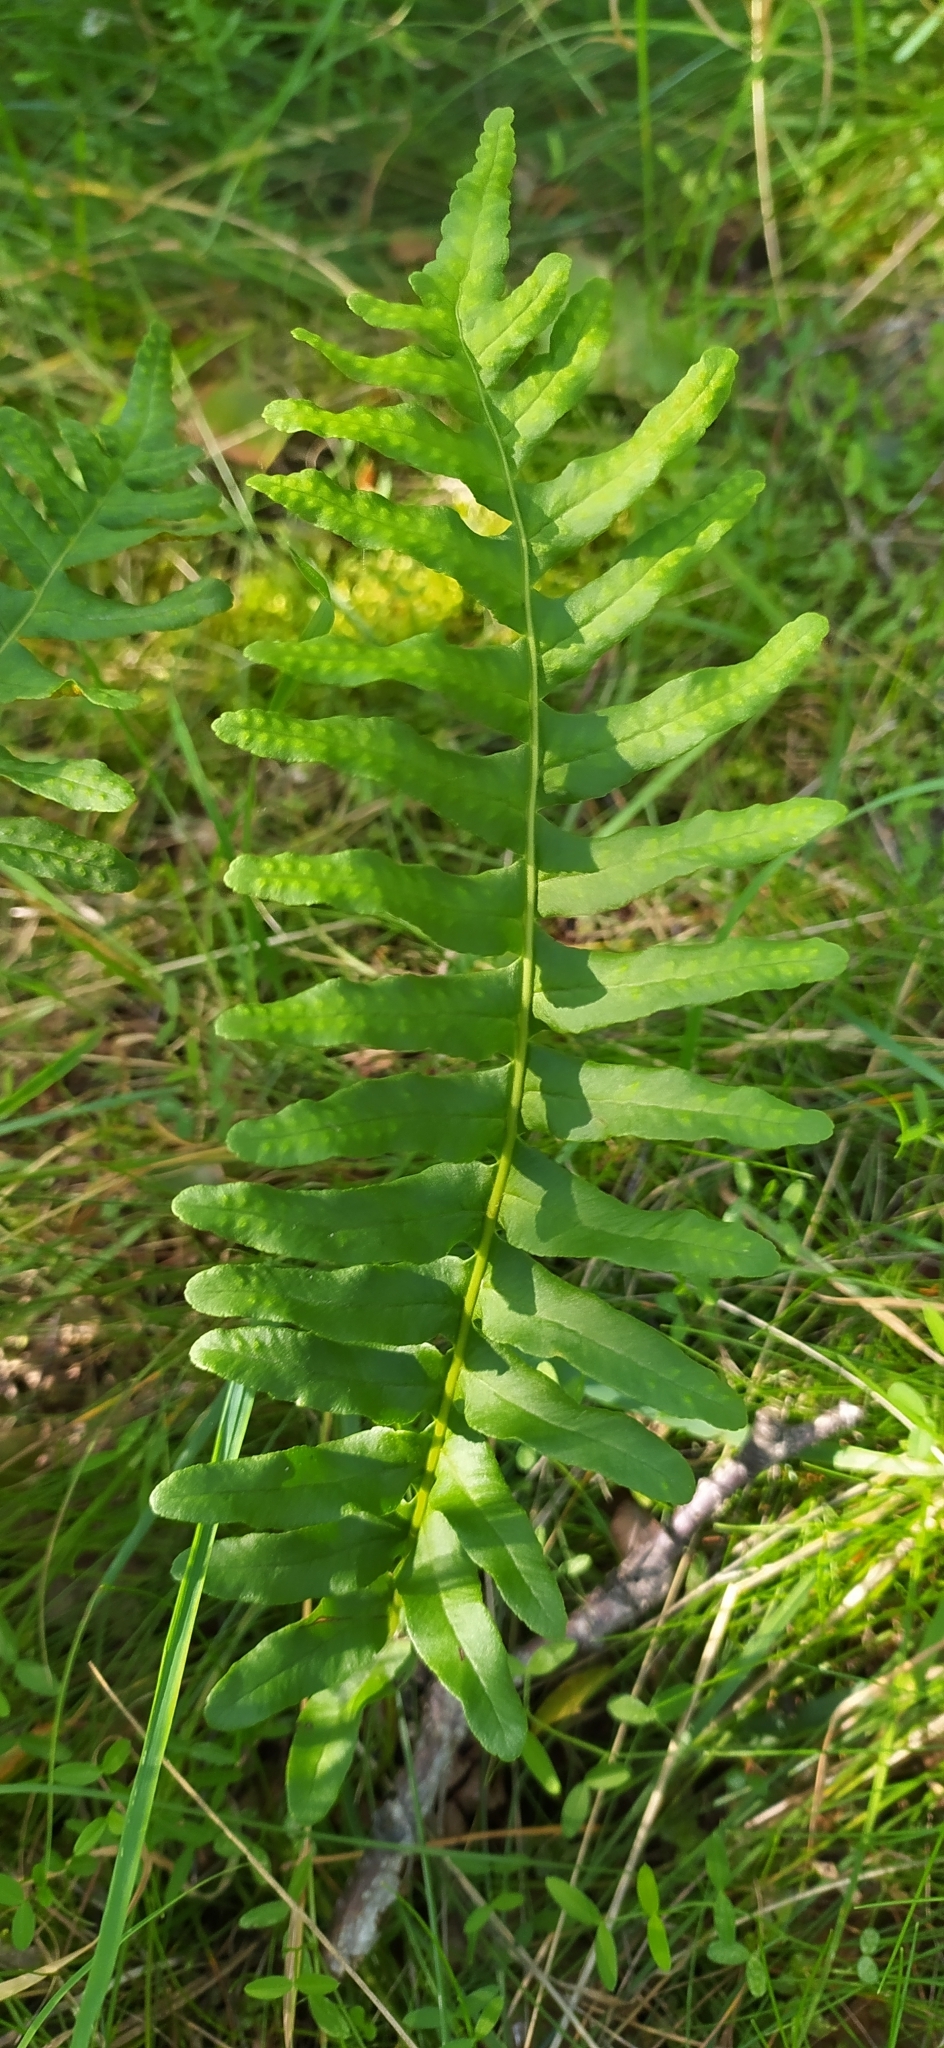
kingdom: Plantae
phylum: Tracheophyta
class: Polypodiopsida
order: Polypodiales
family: Polypodiaceae
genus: Polypodium
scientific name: Polypodium vulgare
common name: Common polypody
